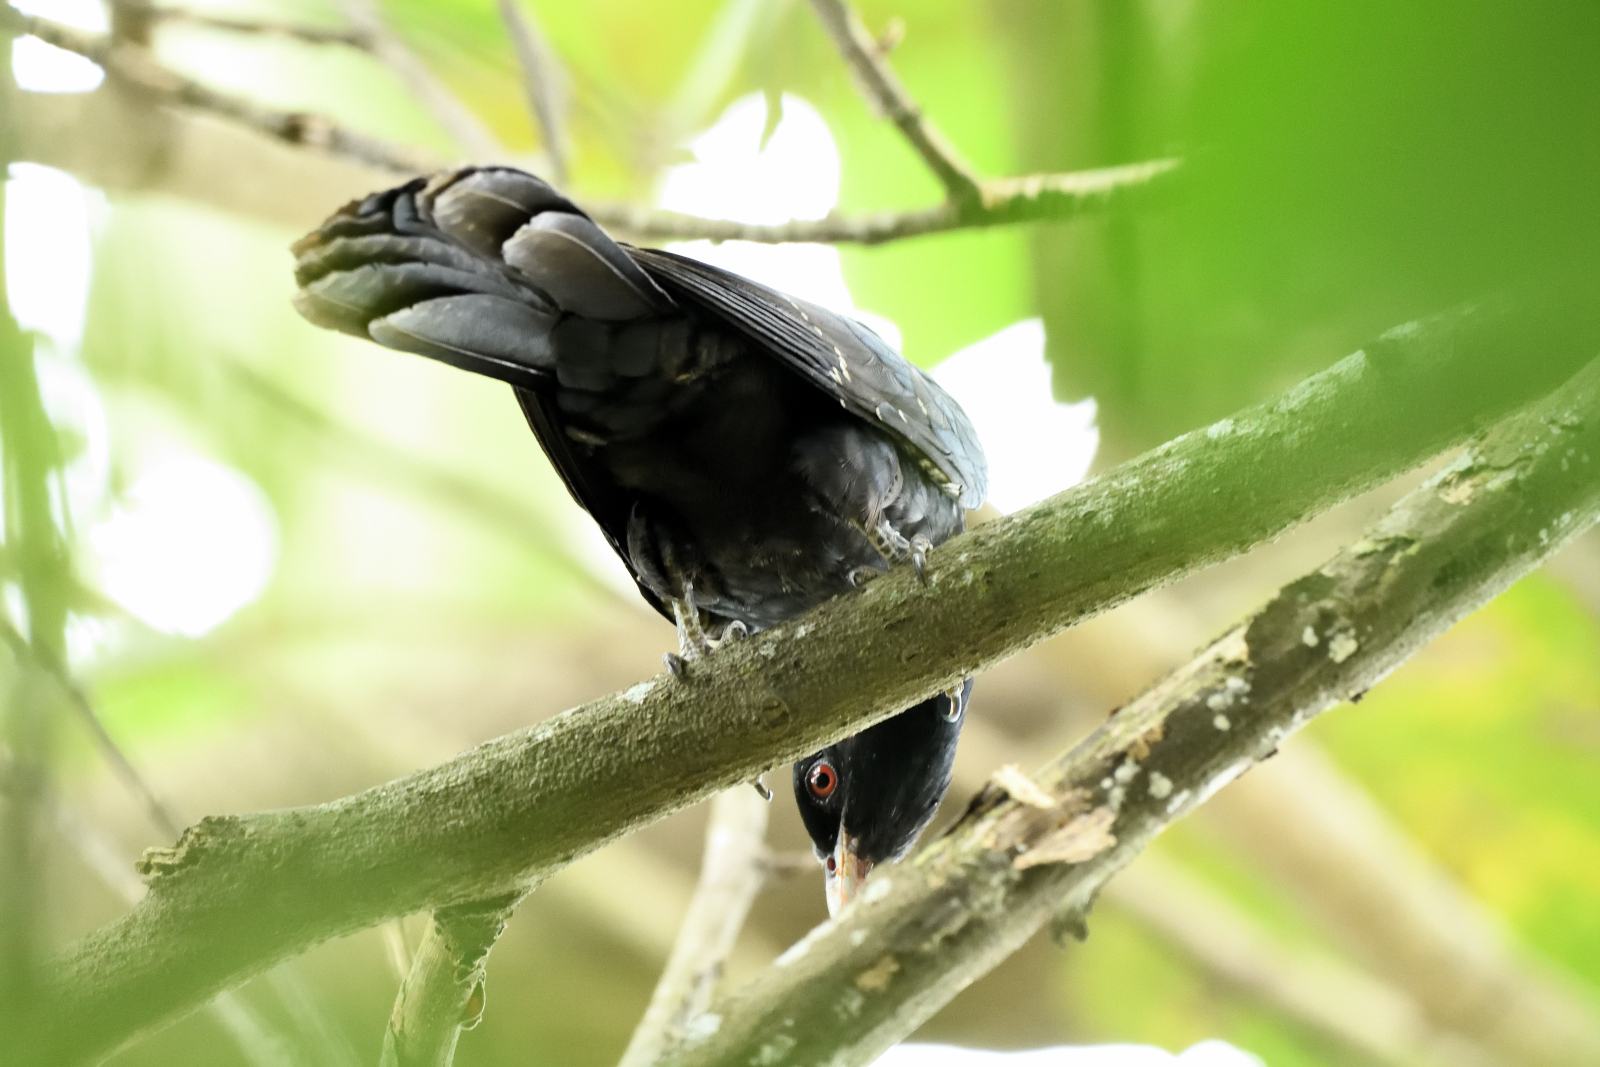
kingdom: Animalia
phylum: Chordata
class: Aves
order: Cuculiformes
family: Cuculidae
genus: Eudynamys
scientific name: Eudynamys scolopaceus
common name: Asian koel
